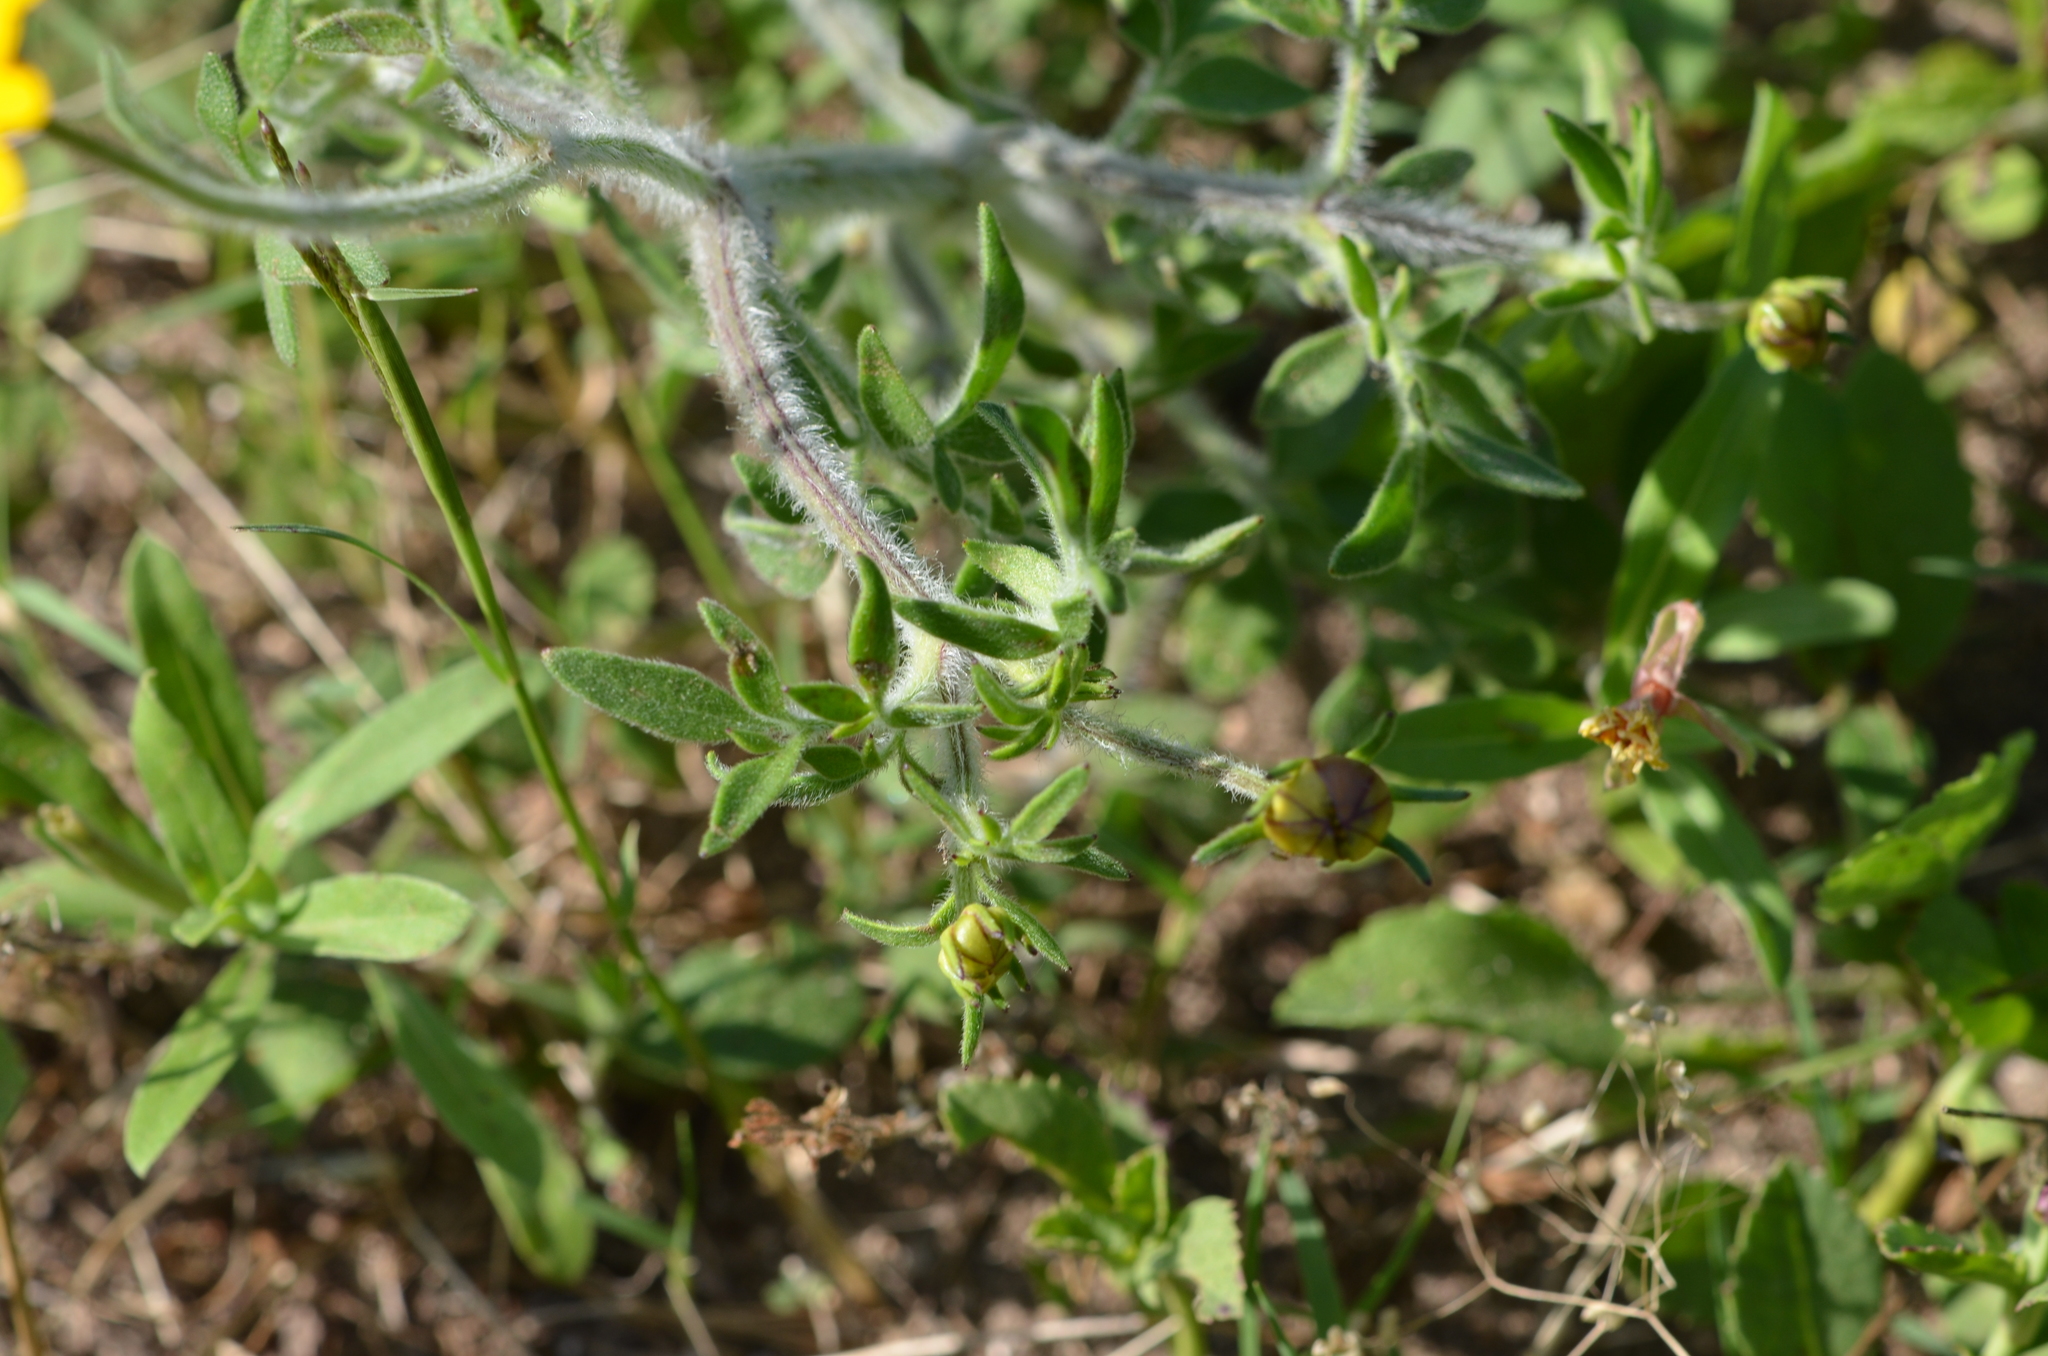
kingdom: Plantae
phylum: Tracheophyta
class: Magnoliopsida
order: Asterales
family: Asteraceae
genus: Coreopsis
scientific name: Coreopsis basalis
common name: Golden-mane coreopsis
